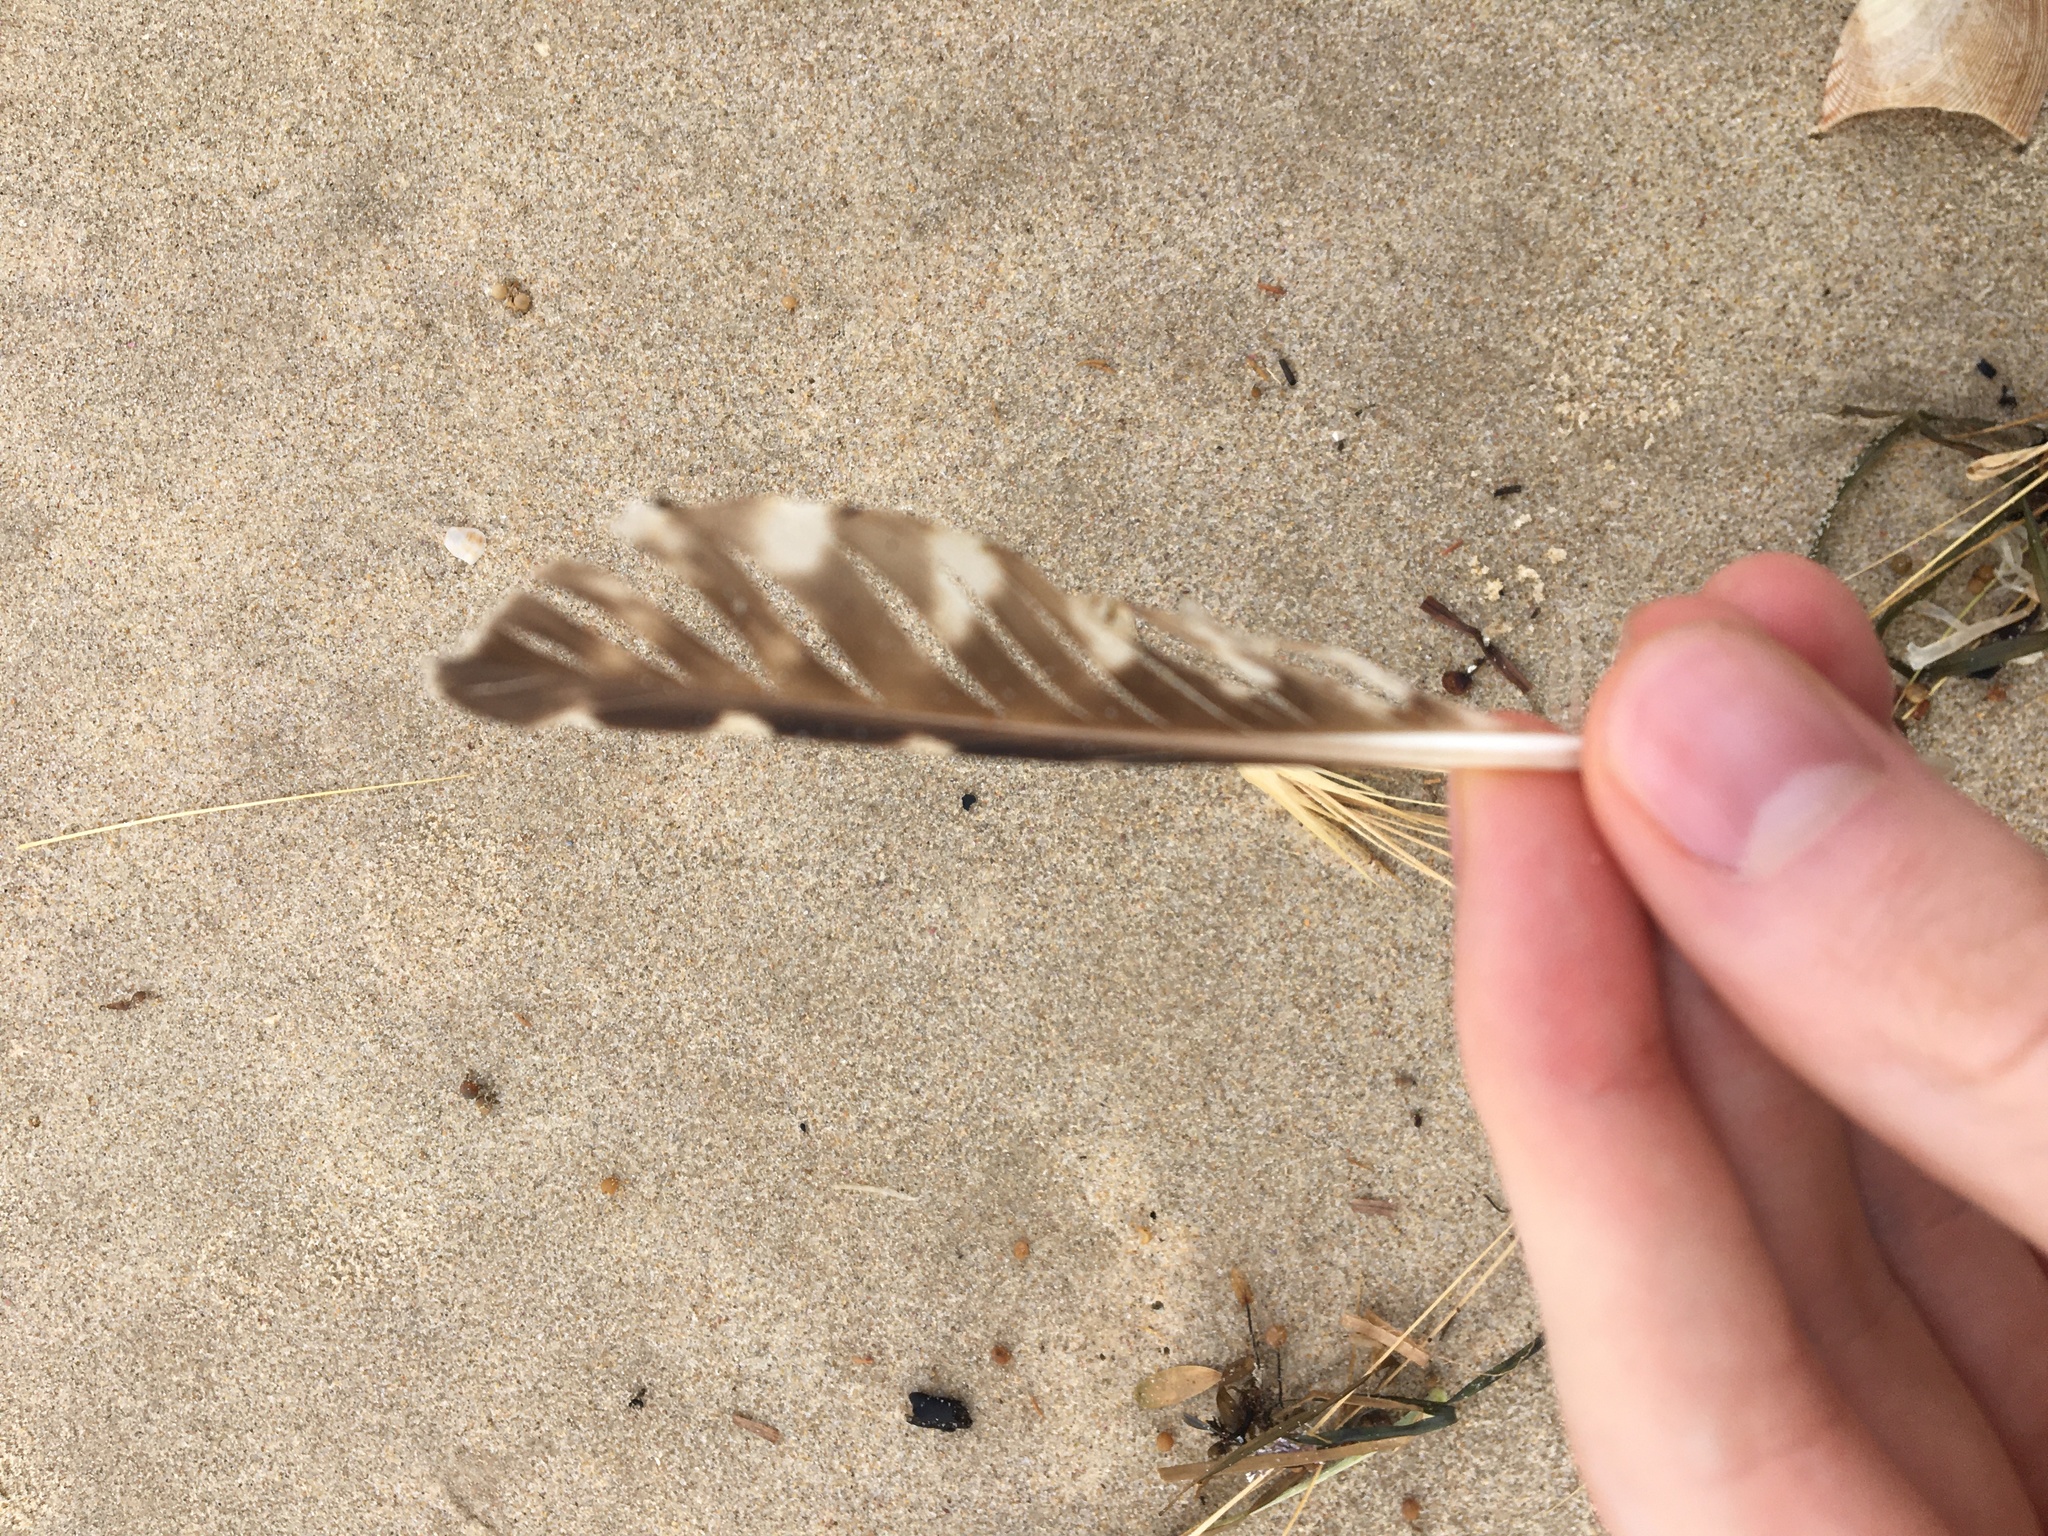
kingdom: Animalia
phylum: Chordata
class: Aves
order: Charadriiformes
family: Scolopacidae
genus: Numenius
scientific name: Numenius phaeopus
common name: Whimbrel
